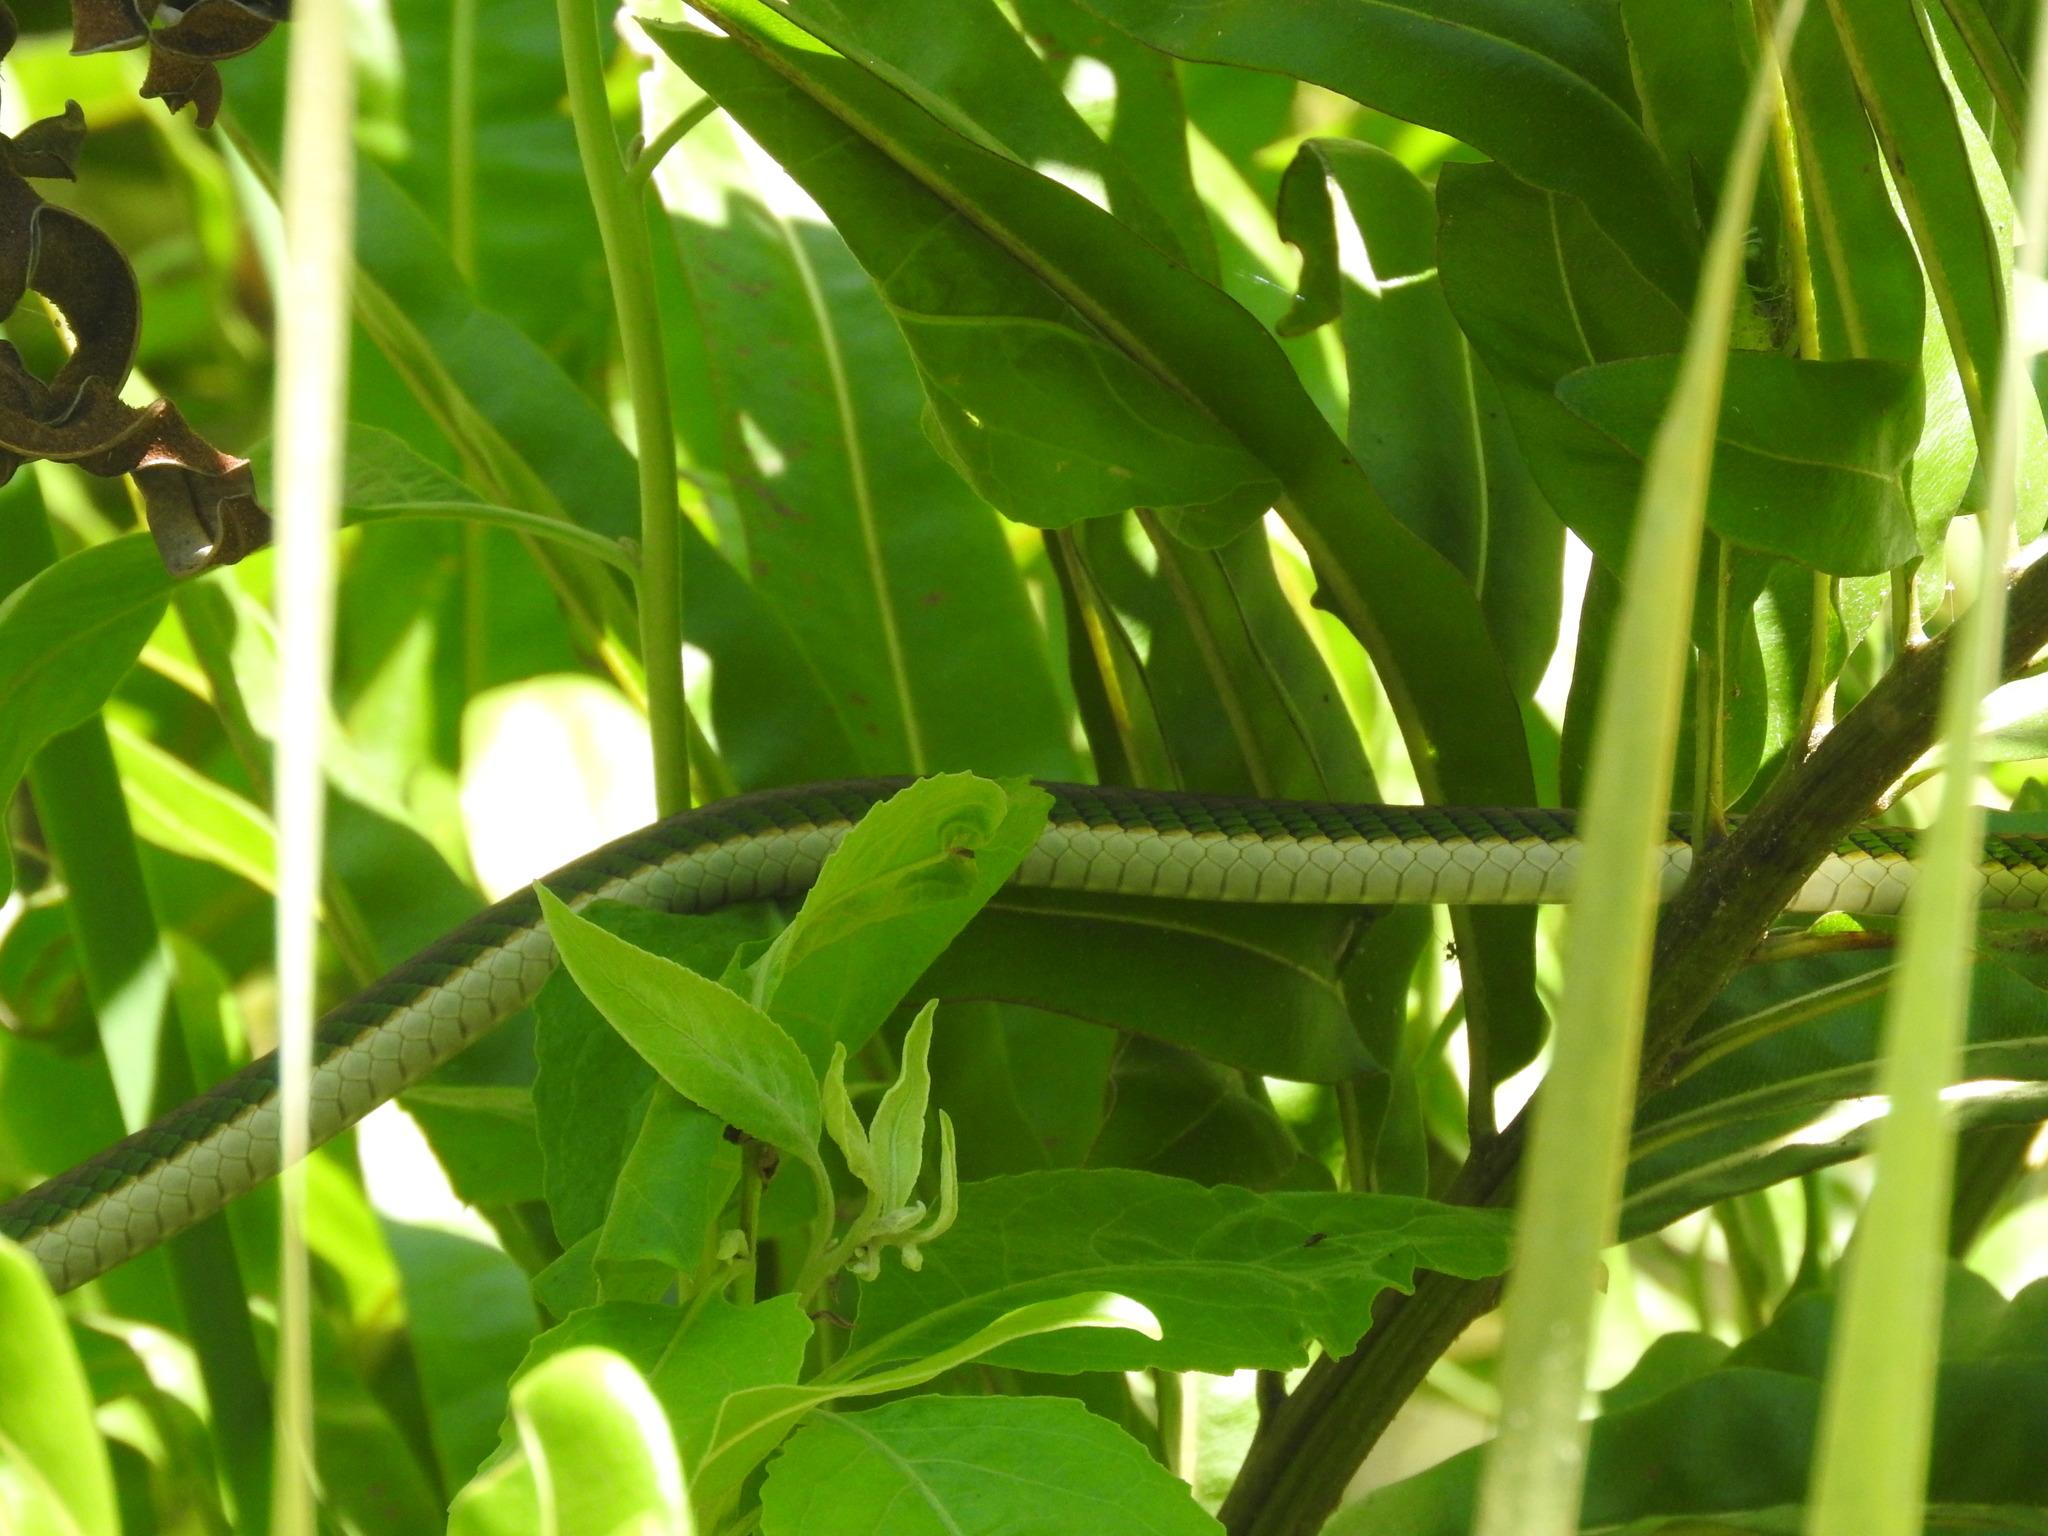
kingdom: Animalia
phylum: Chordata
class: Squamata
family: Colubridae
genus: Leptophis
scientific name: Leptophis mexicanus
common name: Mexican parrot snake
